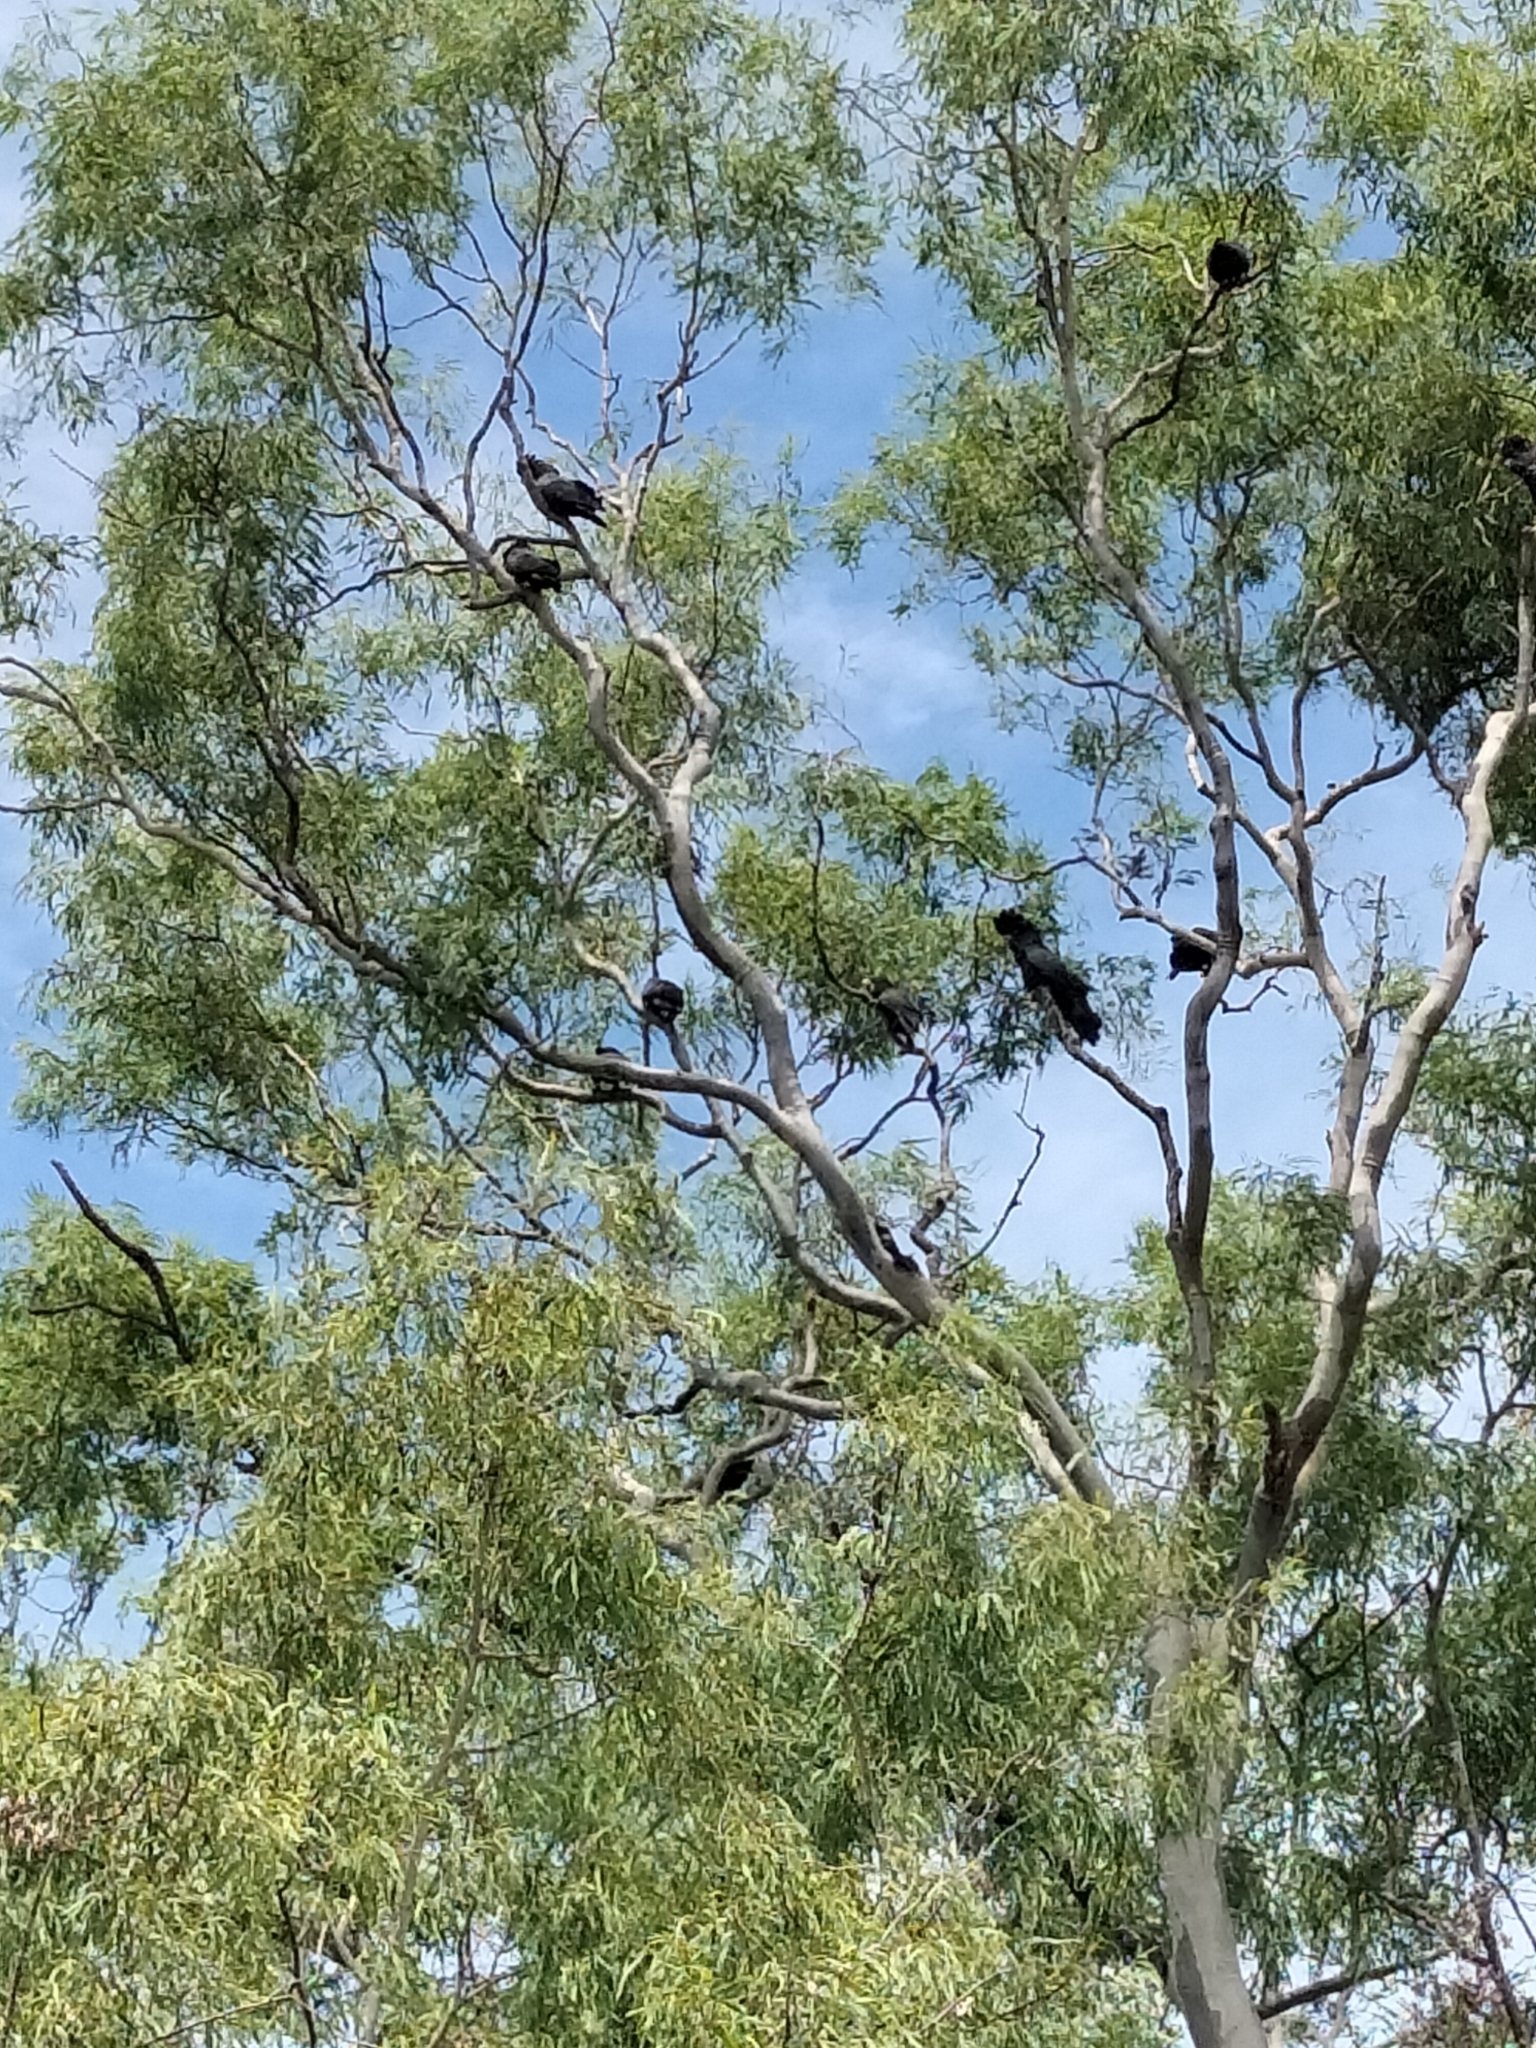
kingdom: Animalia
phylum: Chordata
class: Aves
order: Psittaciformes
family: Psittacidae
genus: Calyptorhynchus
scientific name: Calyptorhynchus banksii
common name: Red-tailed black cockatoo
